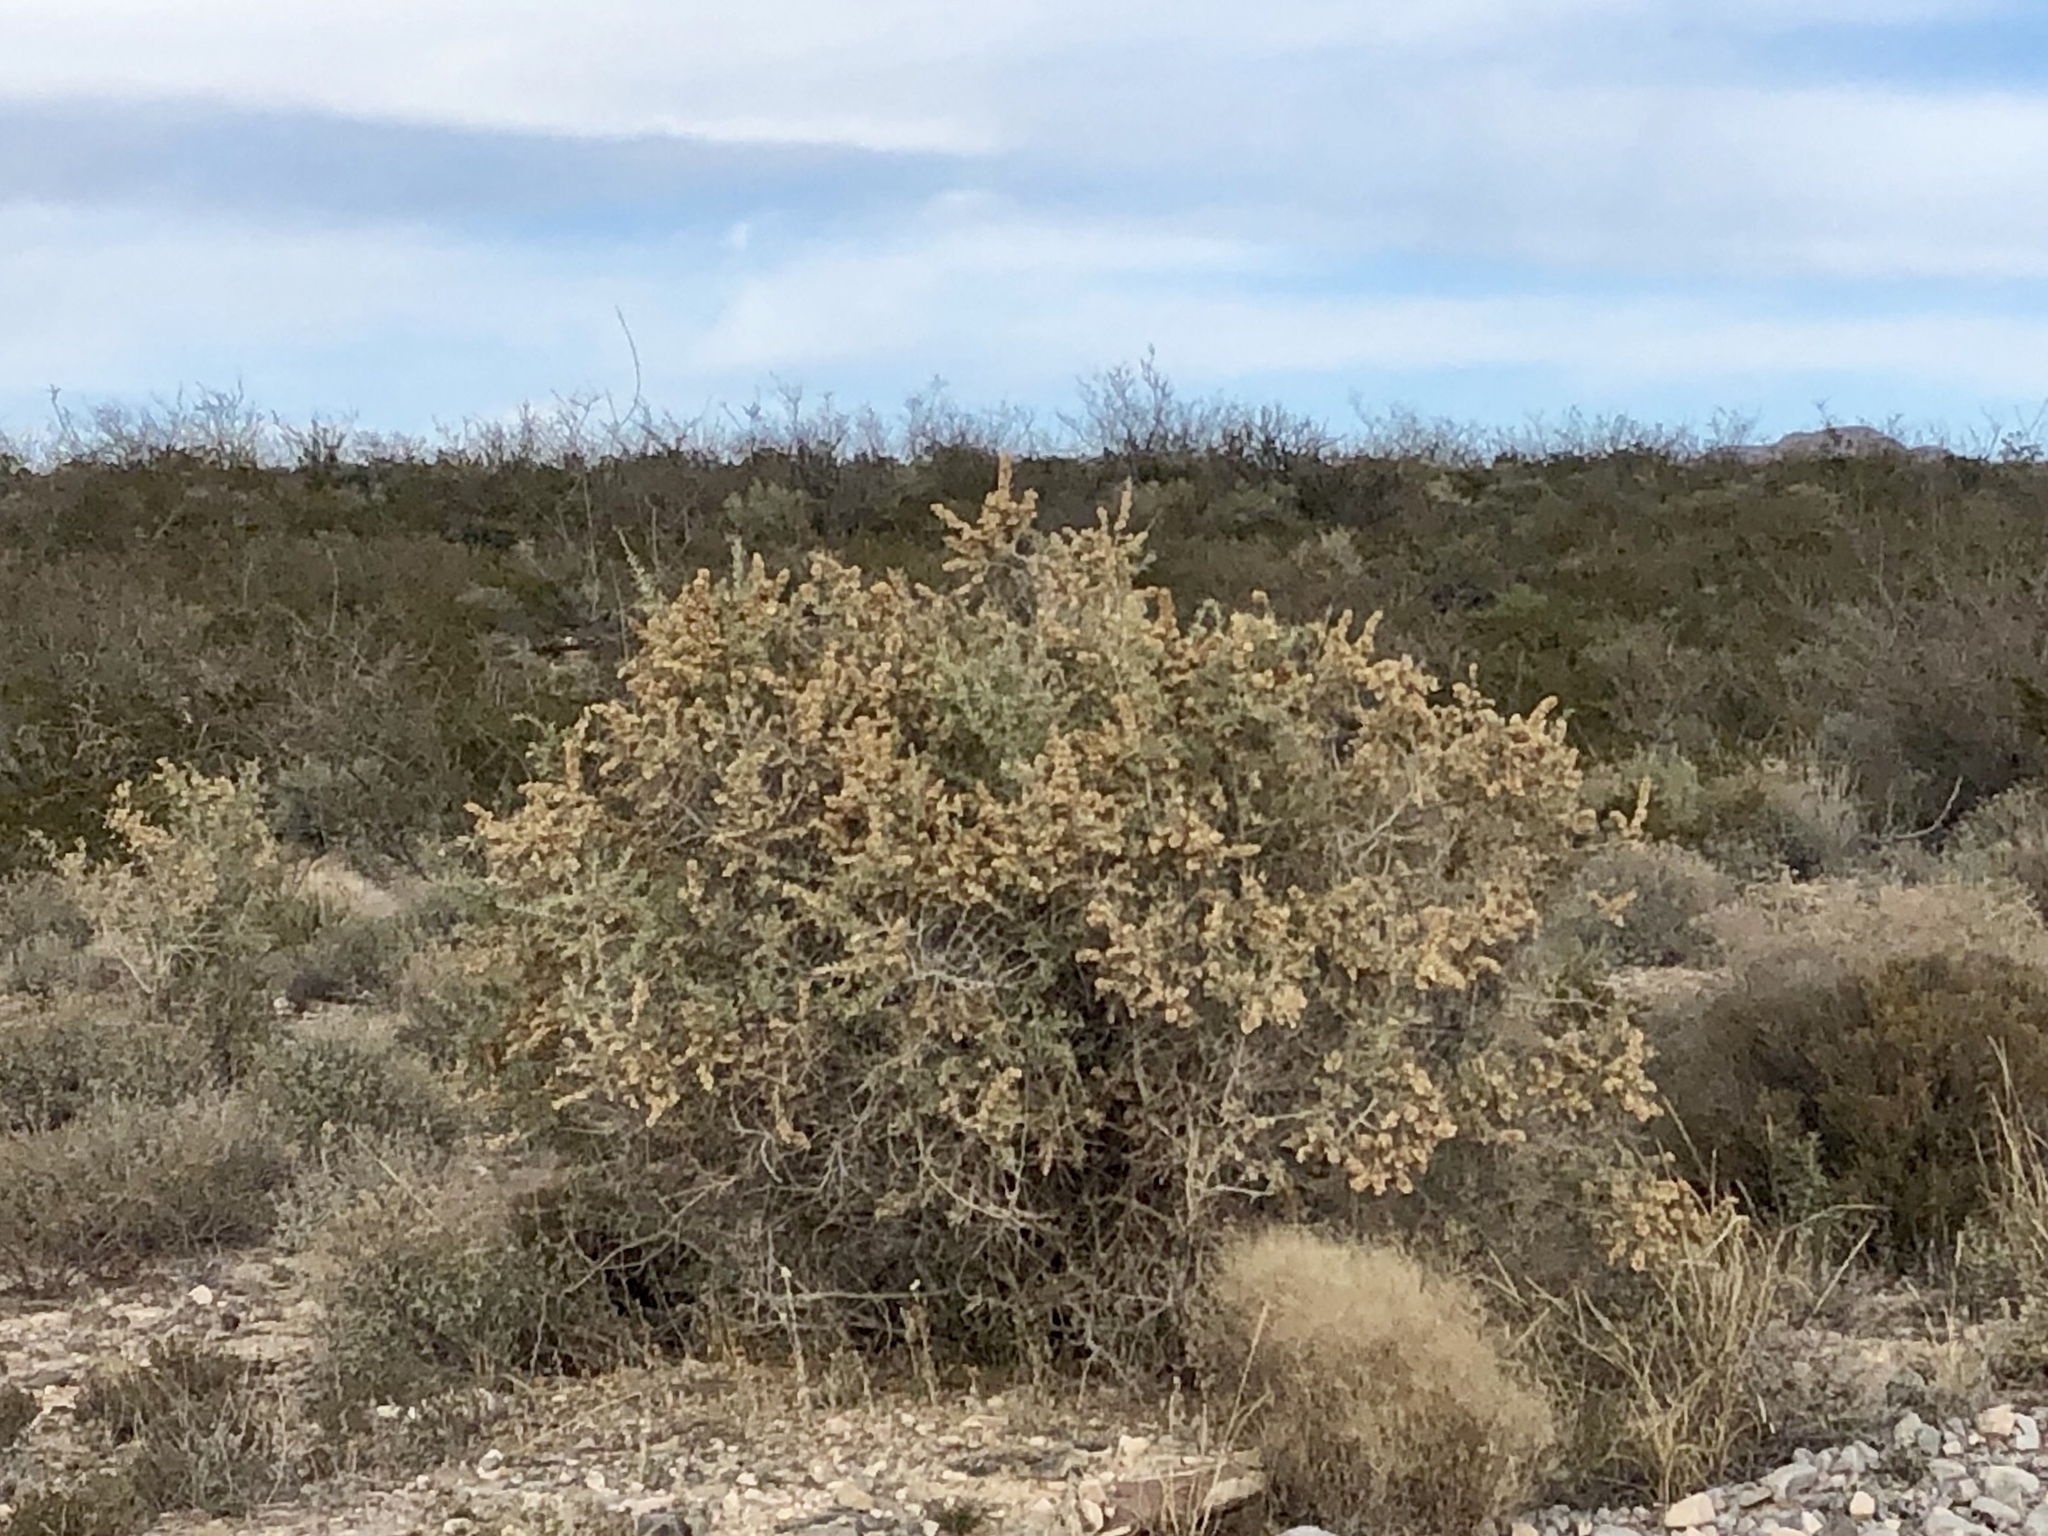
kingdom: Plantae
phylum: Tracheophyta
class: Magnoliopsida
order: Caryophyllales
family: Amaranthaceae
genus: Atriplex
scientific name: Atriplex canescens
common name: Four-wing saltbush
